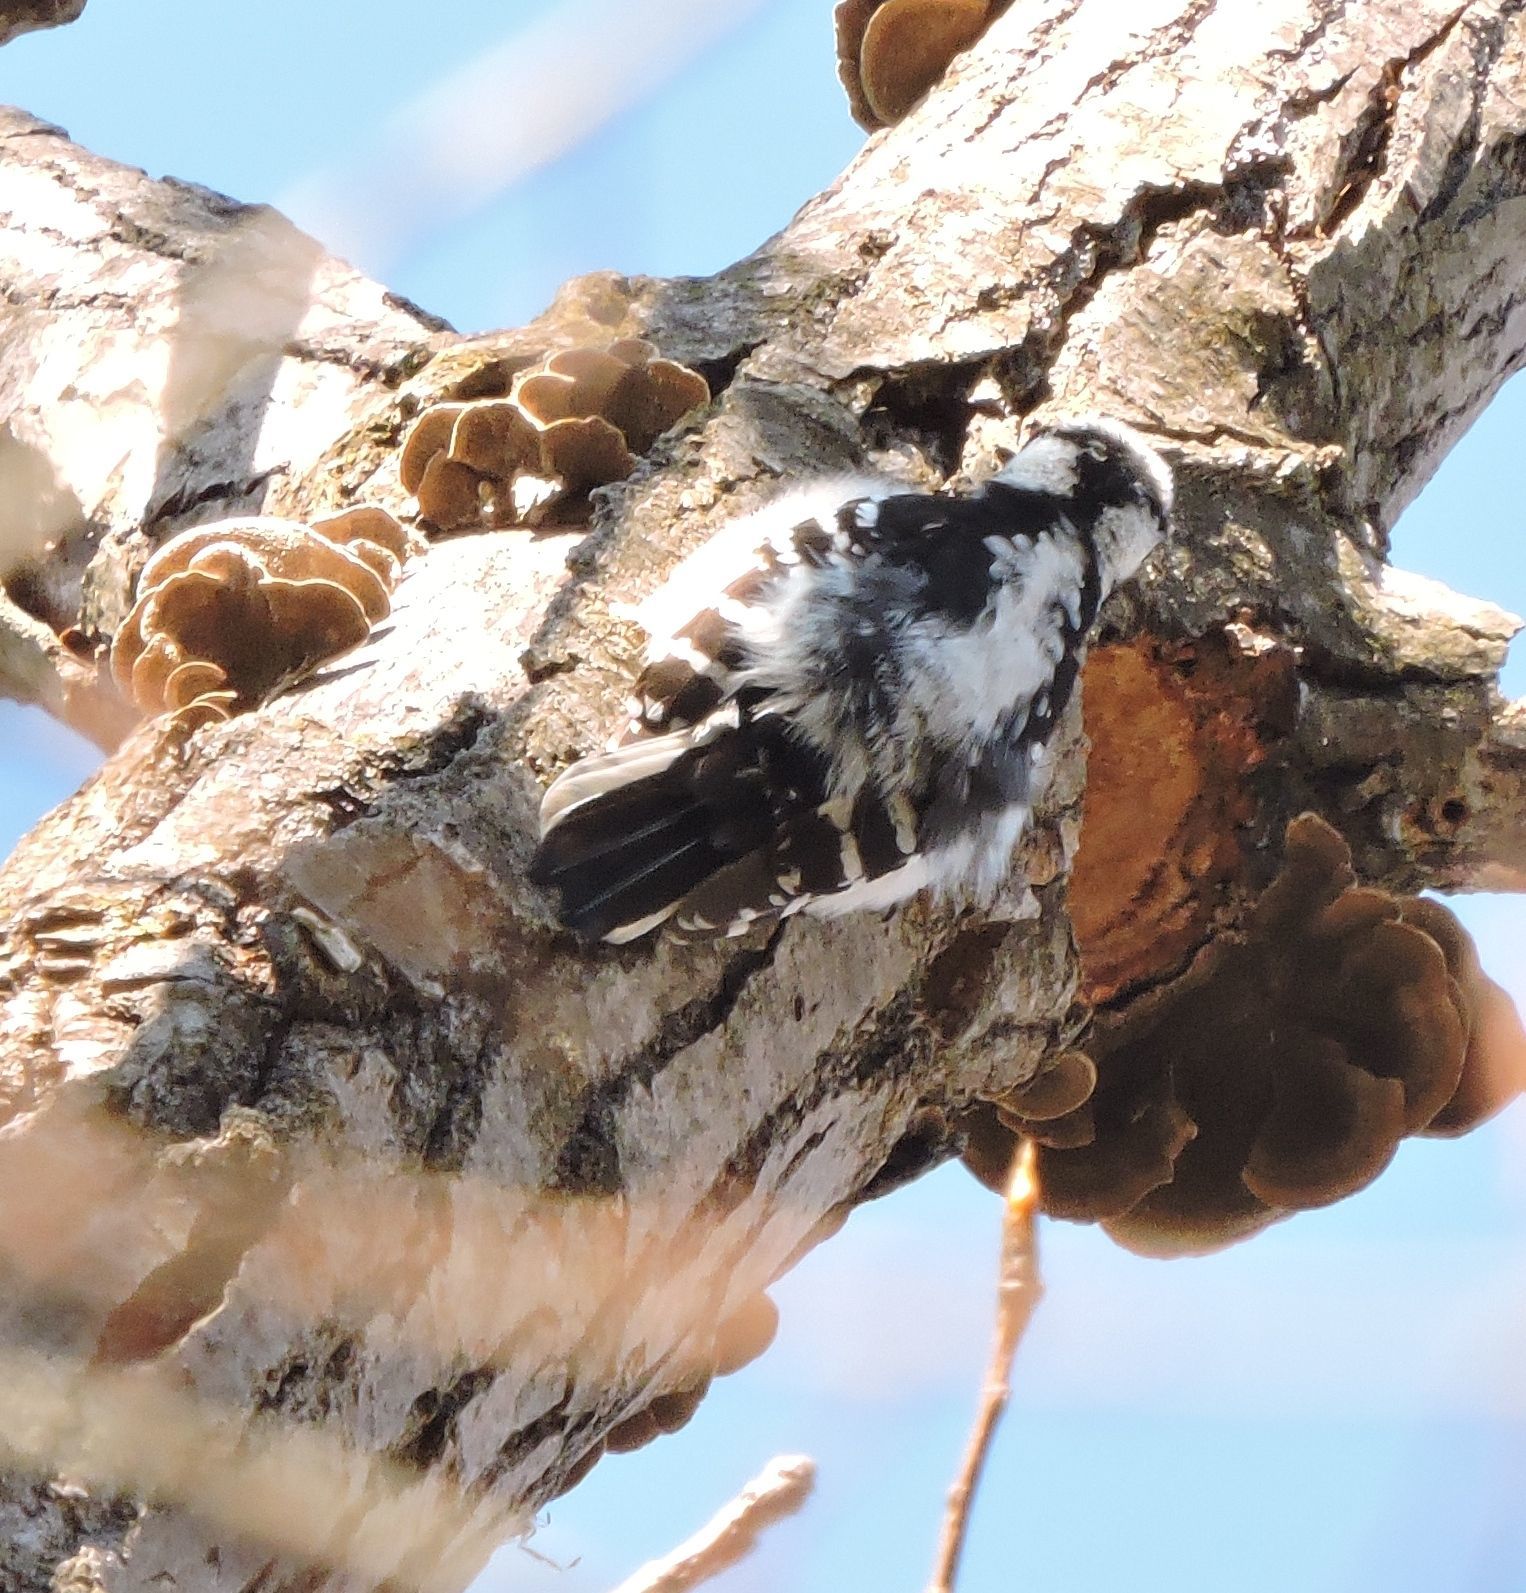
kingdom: Animalia
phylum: Chordata
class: Aves
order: Piciformes
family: Picidae
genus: Dryobates
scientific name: Dryobates pubescens
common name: Downy woodpecker
